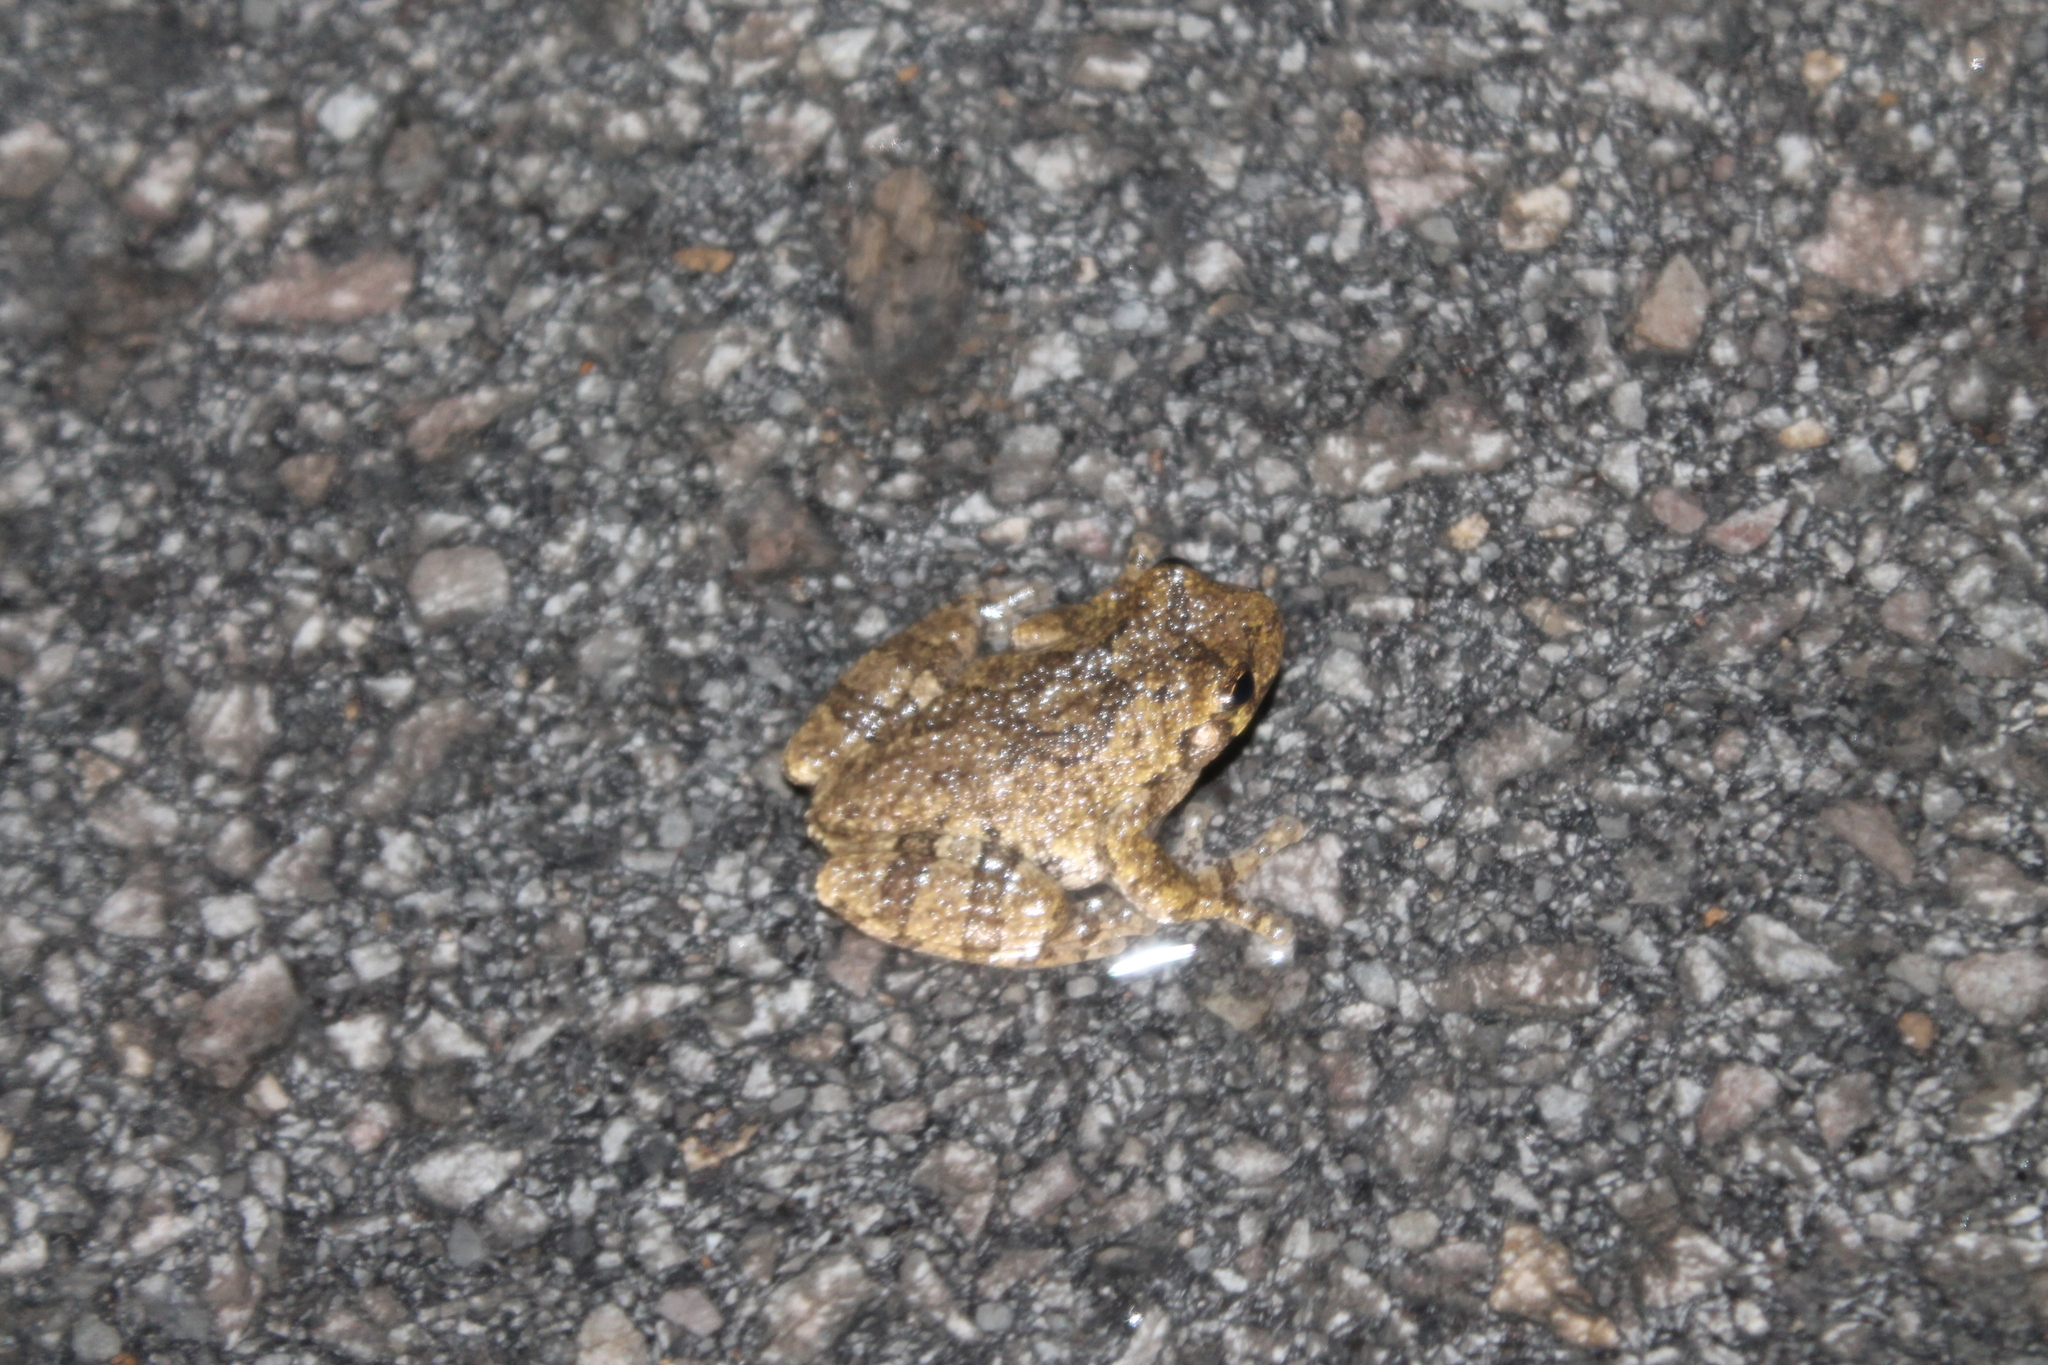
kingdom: Animalia
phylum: Chordata
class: Amphibia
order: Anura
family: Hylidae
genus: Dryophytes
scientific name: Dryophytes chrysoscelis
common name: Cope's gray treefrog
